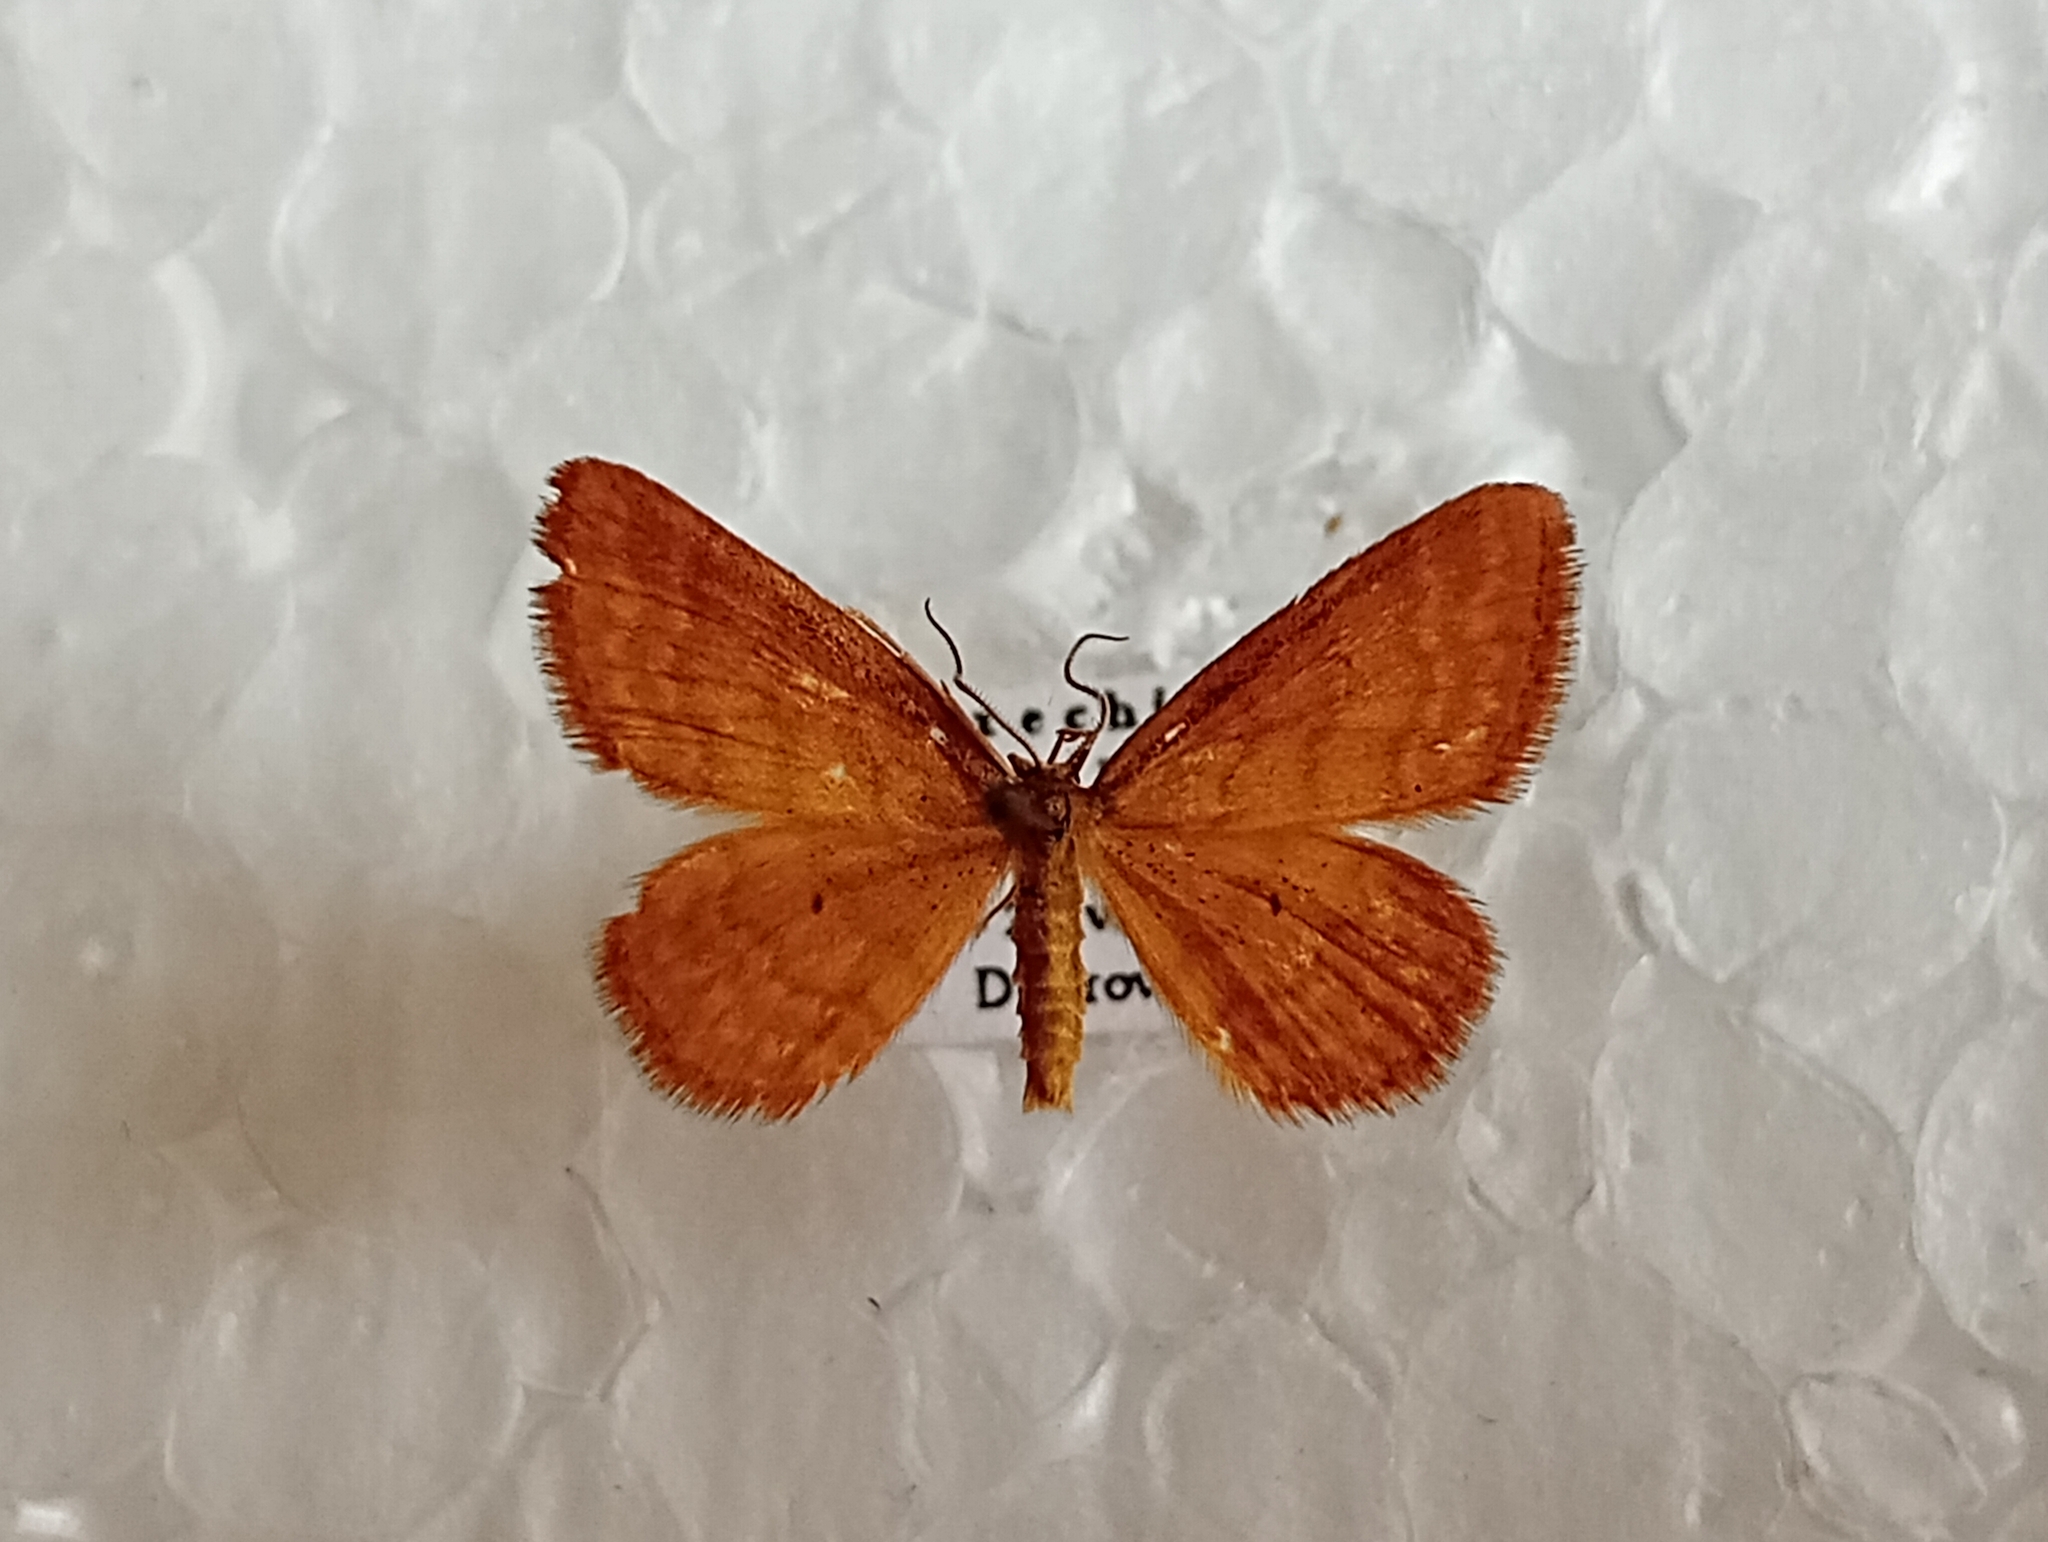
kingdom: Animalia
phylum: Arthropoda
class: Insecta
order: Lepidoptera
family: Geometridae
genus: Idaea
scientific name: Idaea serpentata
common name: Ochraceous wave
